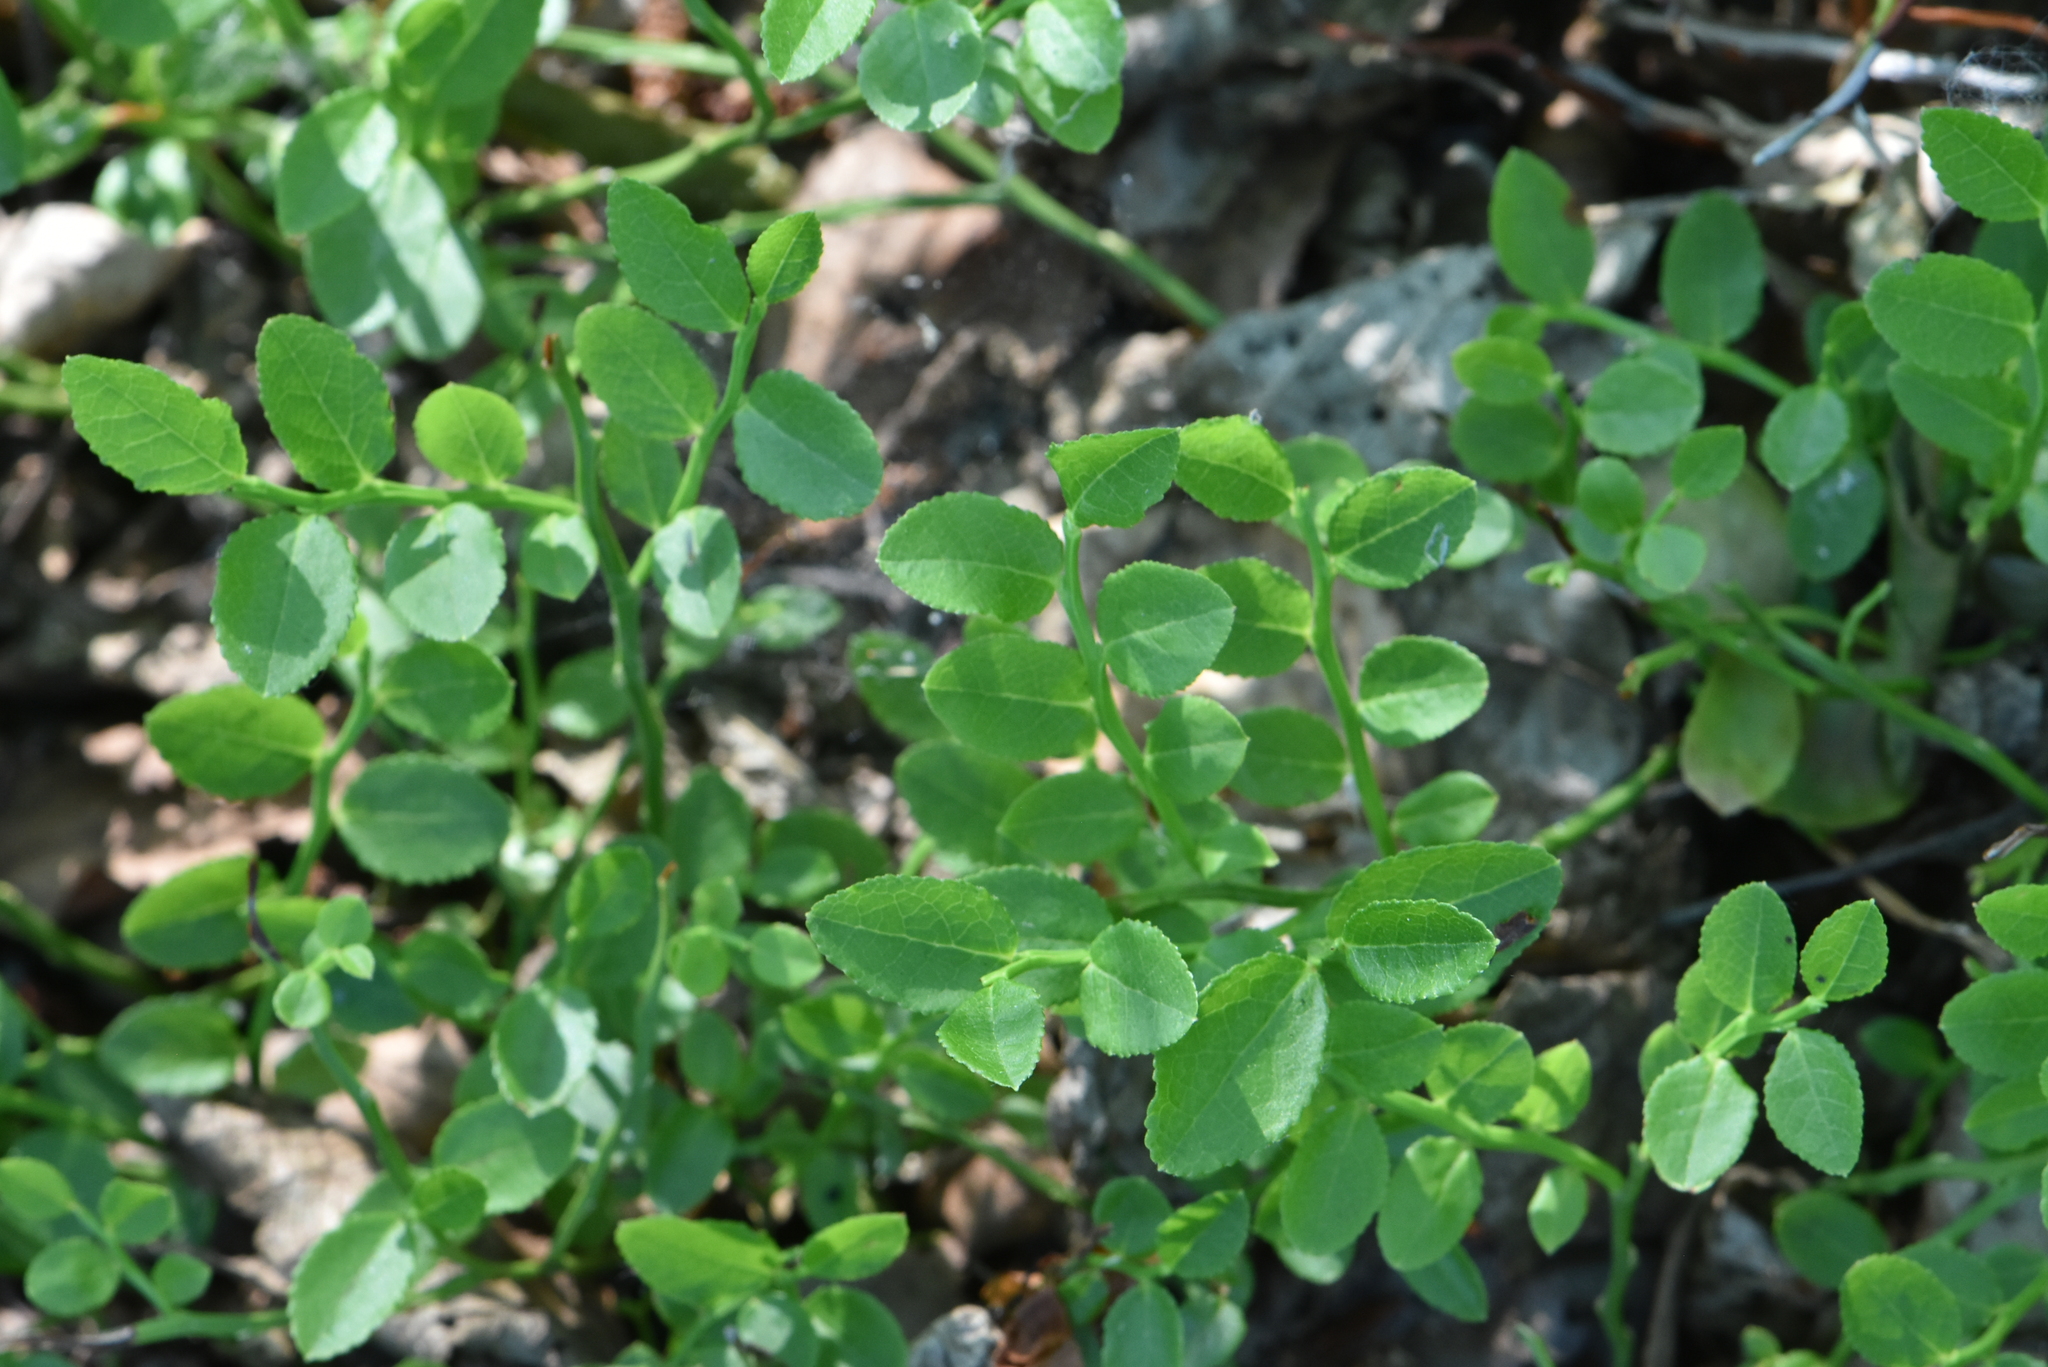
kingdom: Plantae
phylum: Tracheophyta
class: Magnoliopsida
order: Ericales
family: Ericaceae
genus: Vaccinium
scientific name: Vaccinium myrtillus
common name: Bilberry
